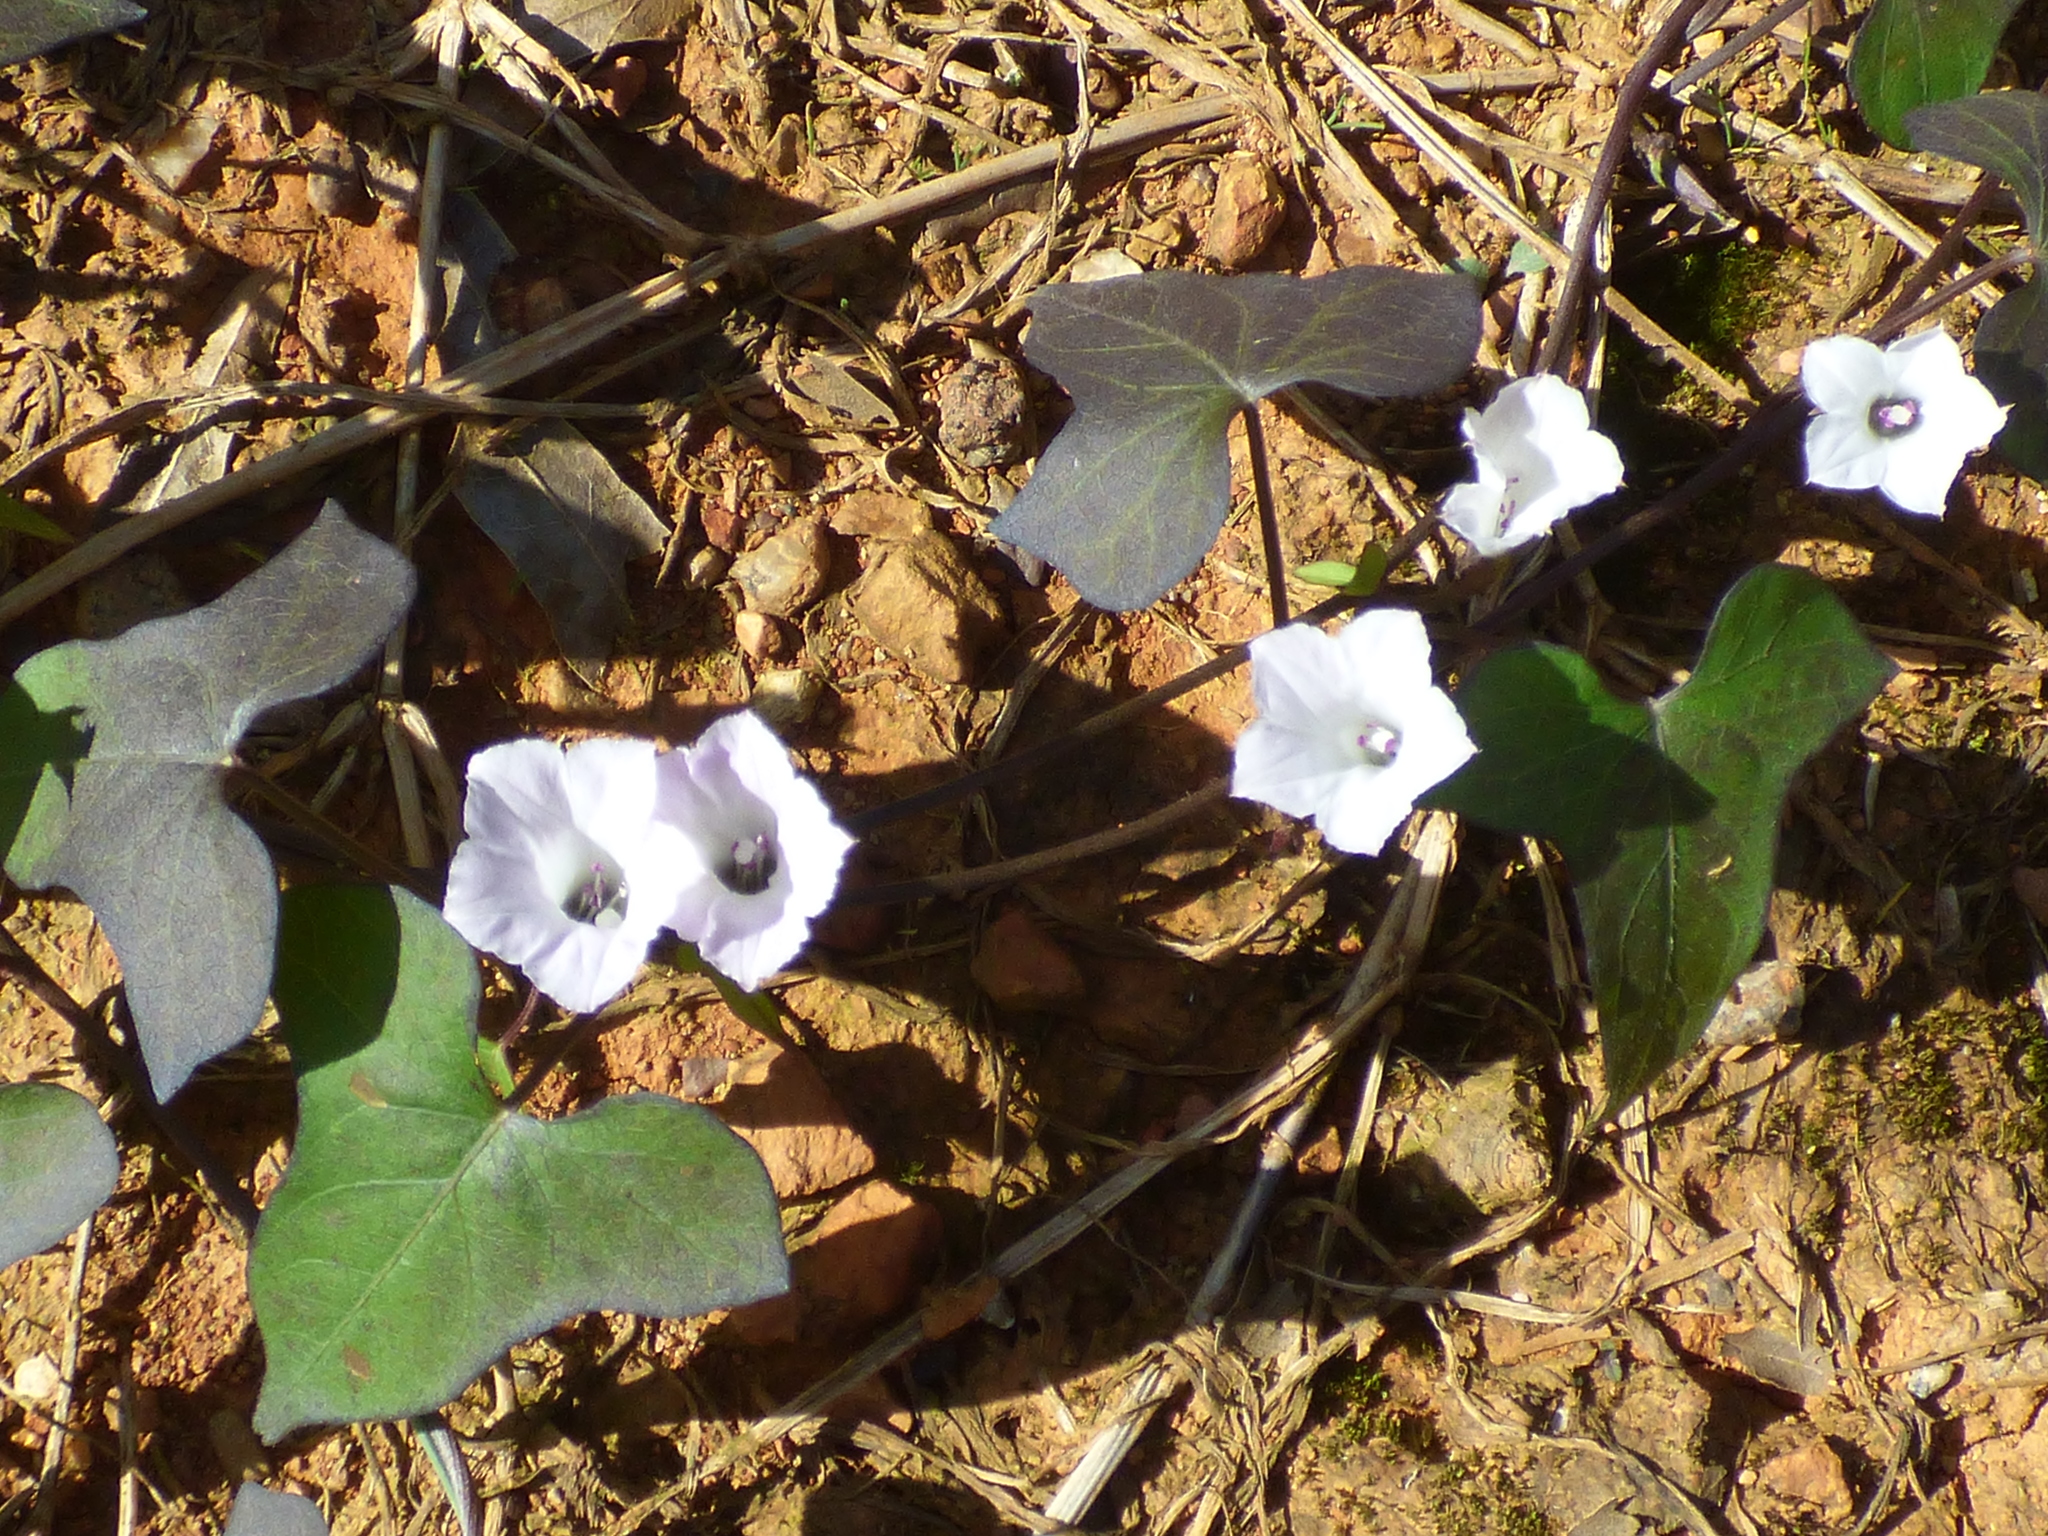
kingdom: Plantae
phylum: Tracheophyta
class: Magnoliopsida
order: Solanales
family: Convolvulaceae
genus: Ipomoea
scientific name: Ipomoea lacunosa
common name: White morning-glory
